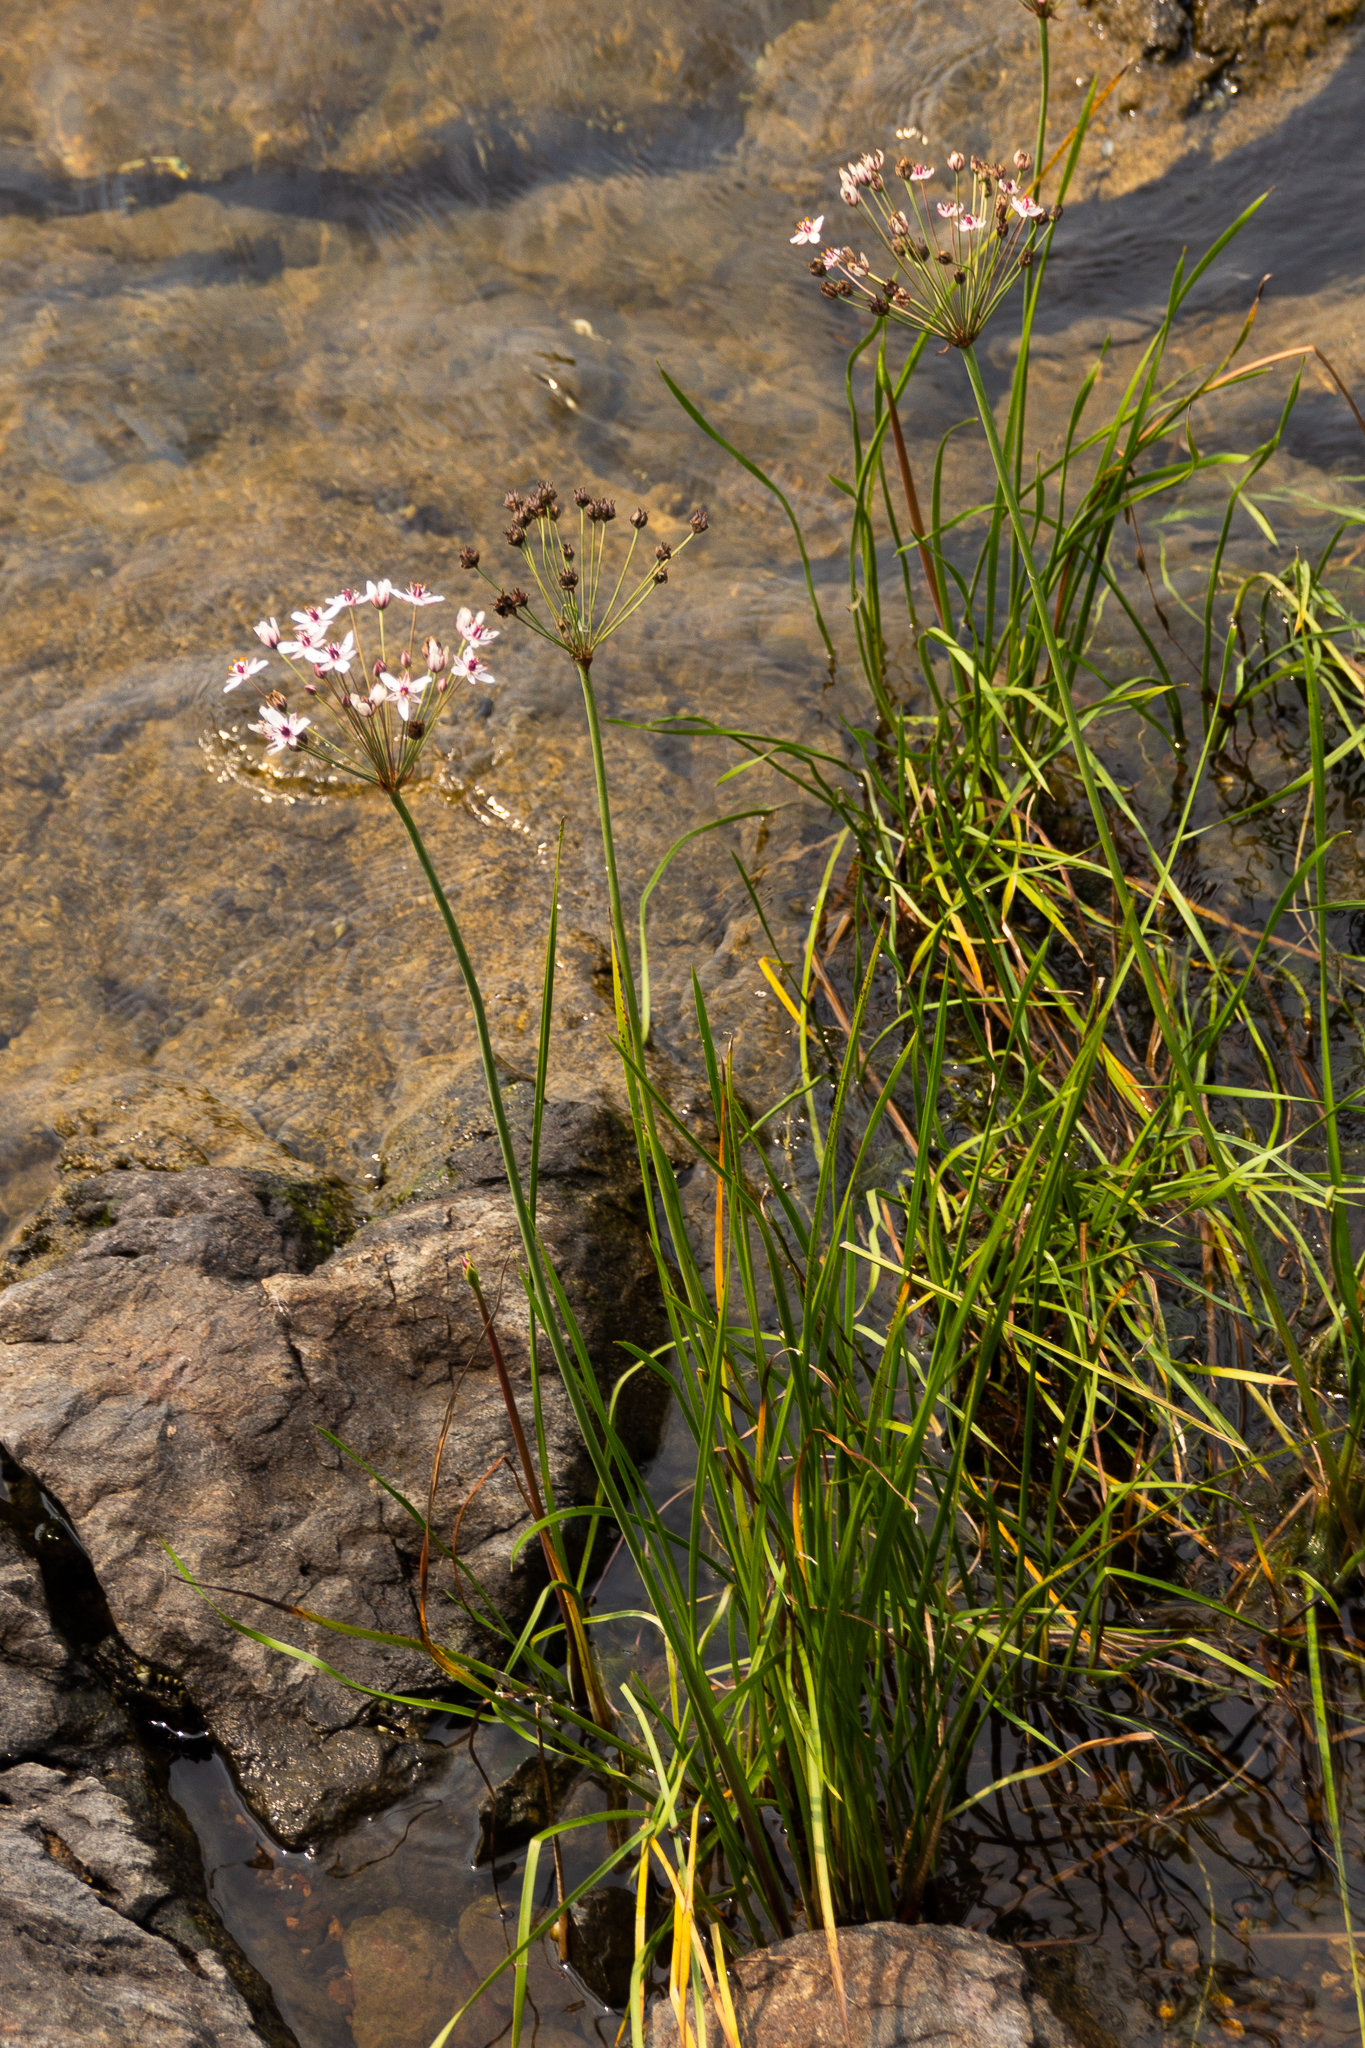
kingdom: Plantae
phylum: Tracheophyta
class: Liliopsida
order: Alismatales
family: Butomaceae
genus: Butomus
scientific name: Butomus umbellatus
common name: Flowering-rush
